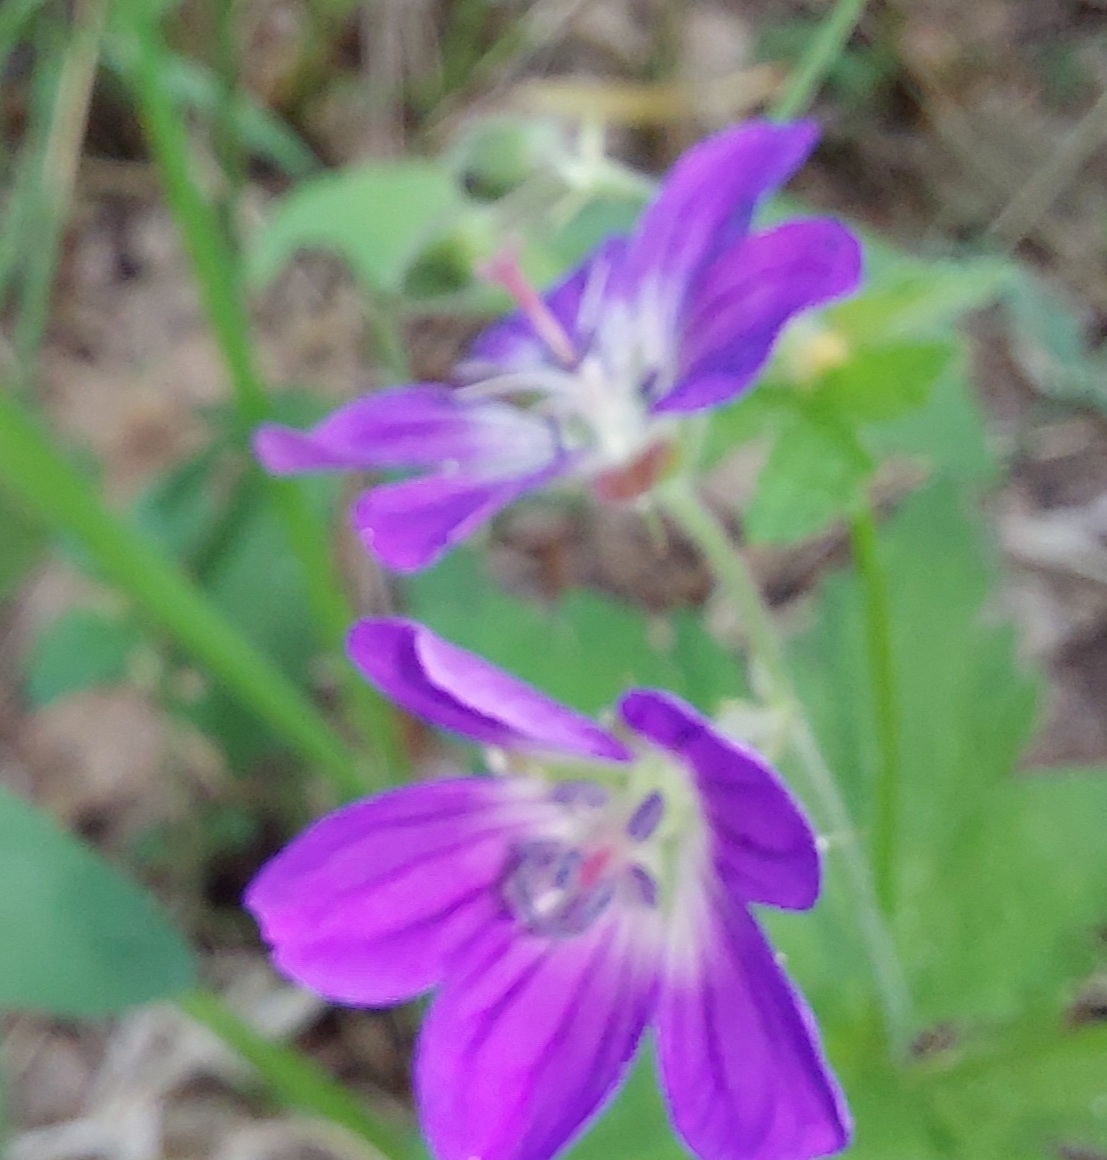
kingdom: Plantae
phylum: Tracheophyta
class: Magnoliopsida
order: Geraniales
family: Geraniaceae
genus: Geranium
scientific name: Geranium sylvaticum
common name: Wood crane's-bill
